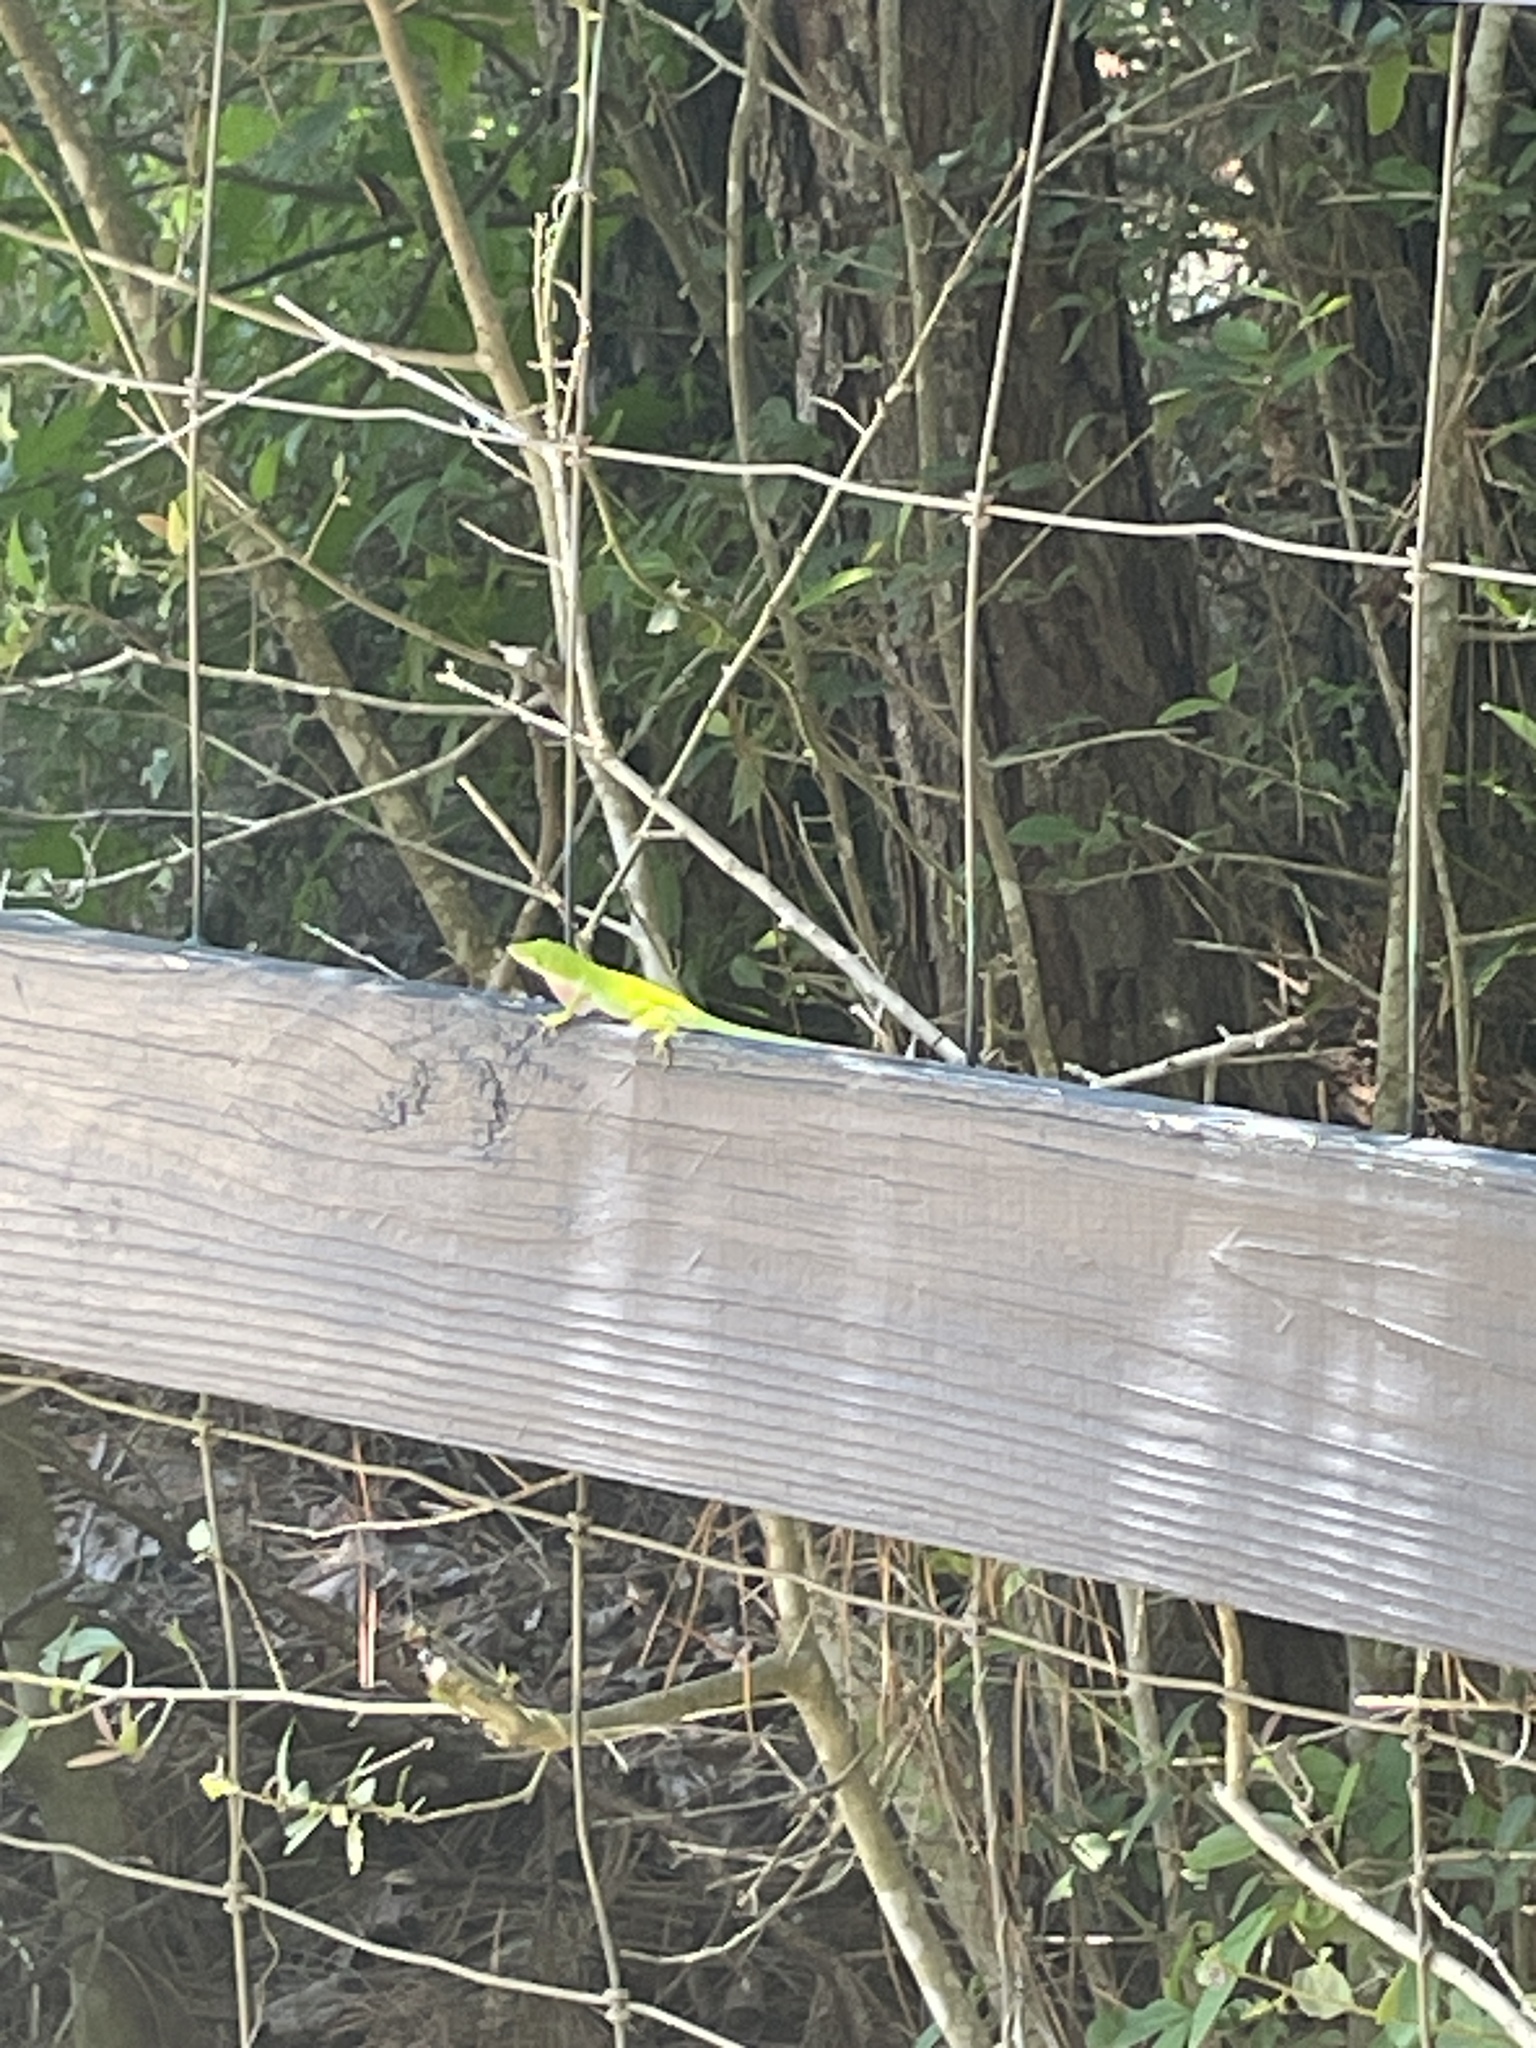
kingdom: Animalia
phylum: Chordata
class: Squamata
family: Dactyloidae
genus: Anolis
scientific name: Anolis carolinensis
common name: Green anole
